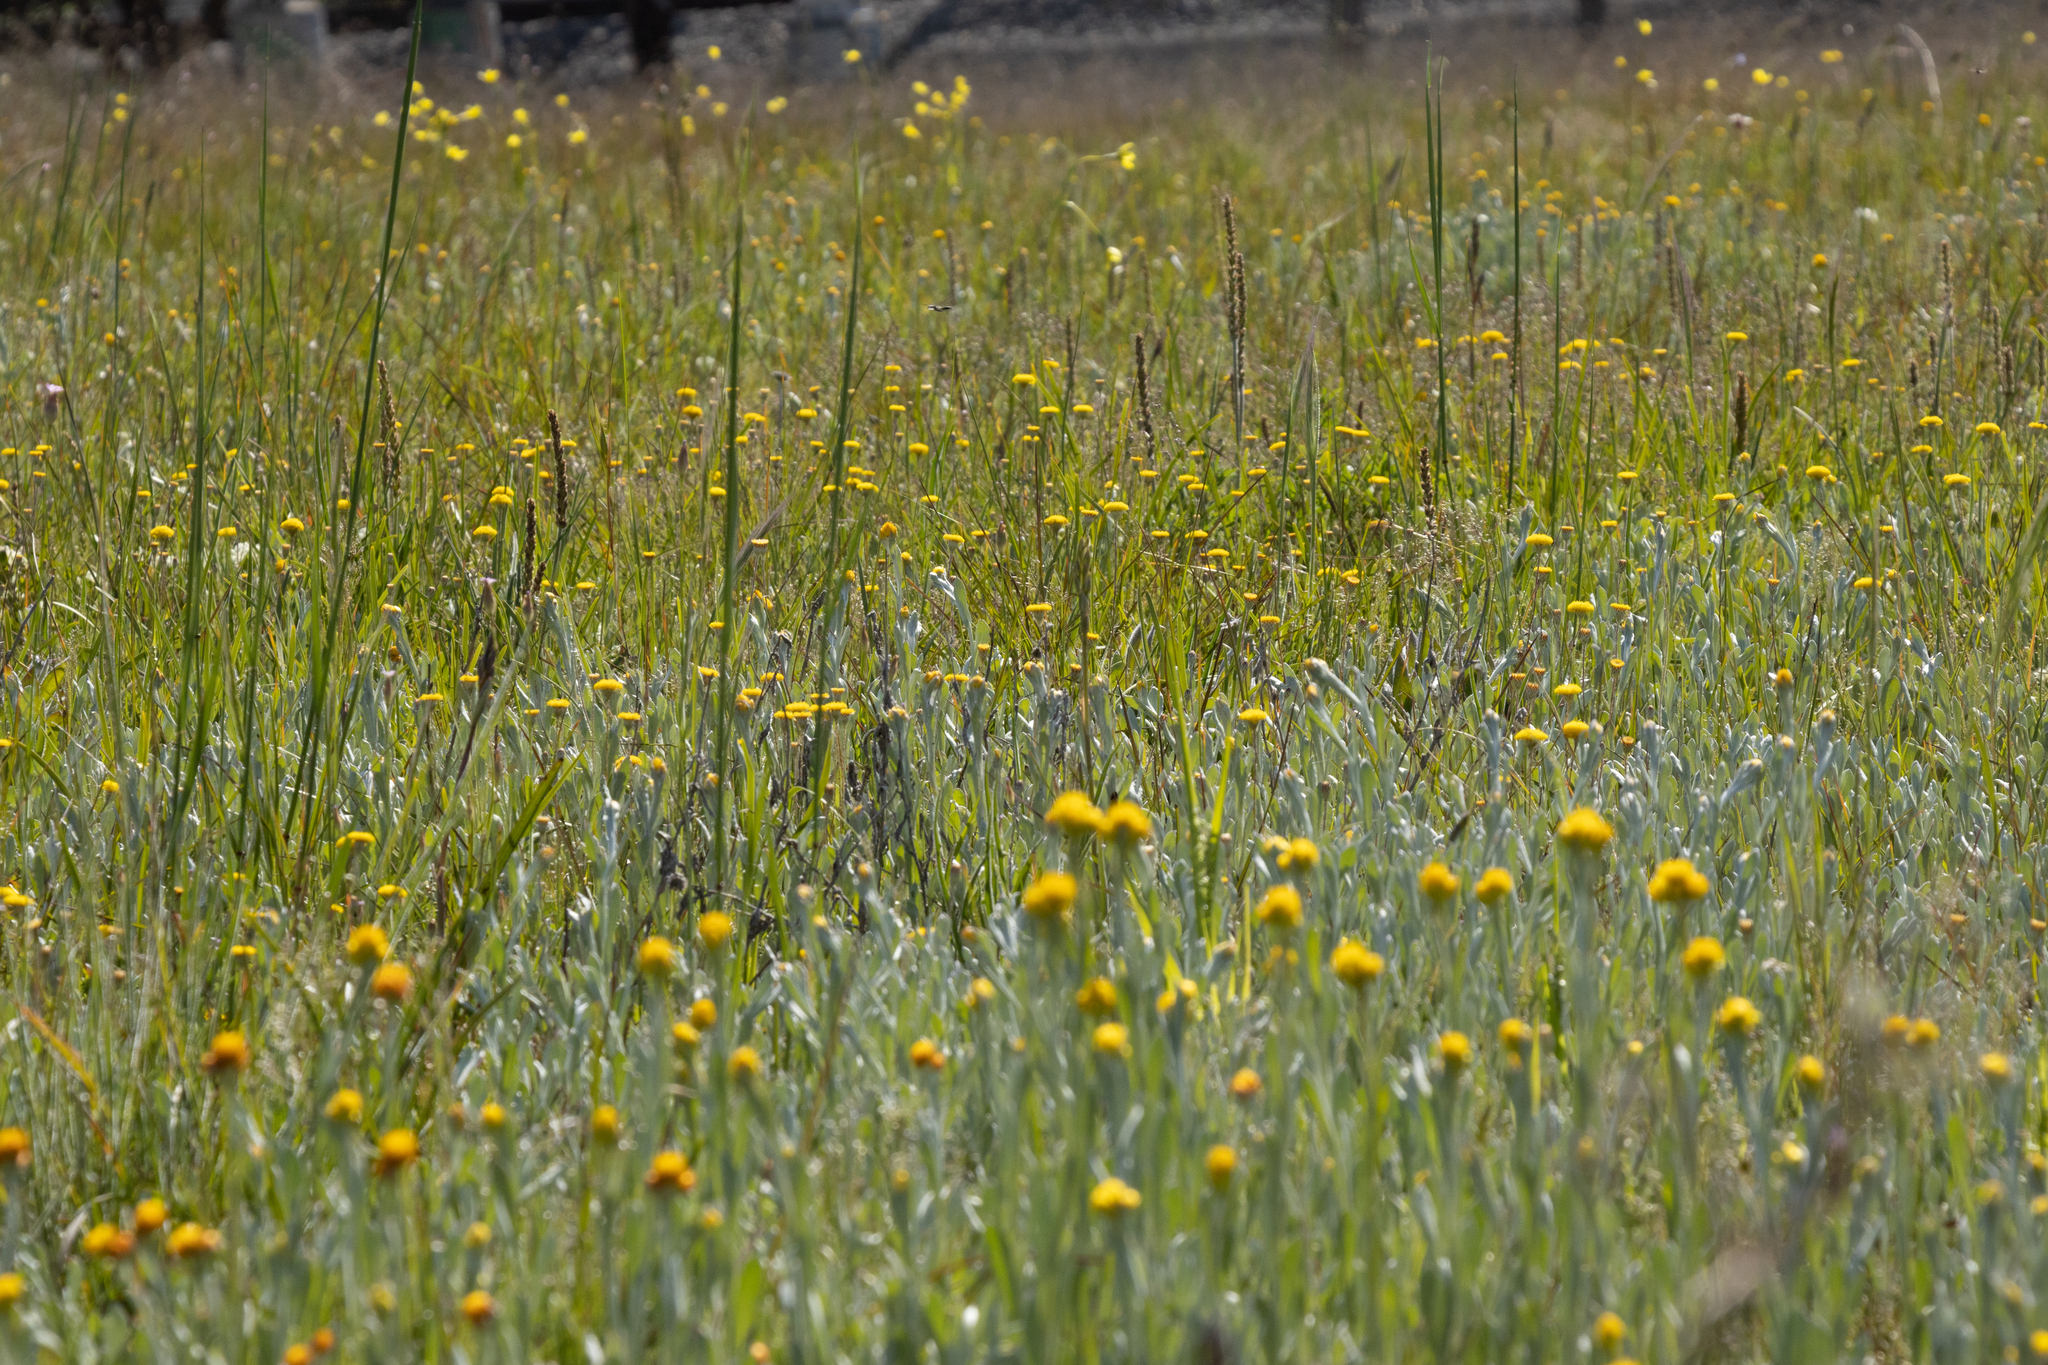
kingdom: Plantae
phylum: Tracheophyta
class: Magnoliopsida
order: Asterales
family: Asteraceae
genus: Chrysocephalum
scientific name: Chrysocephalum apiculatum
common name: Common everlasting
